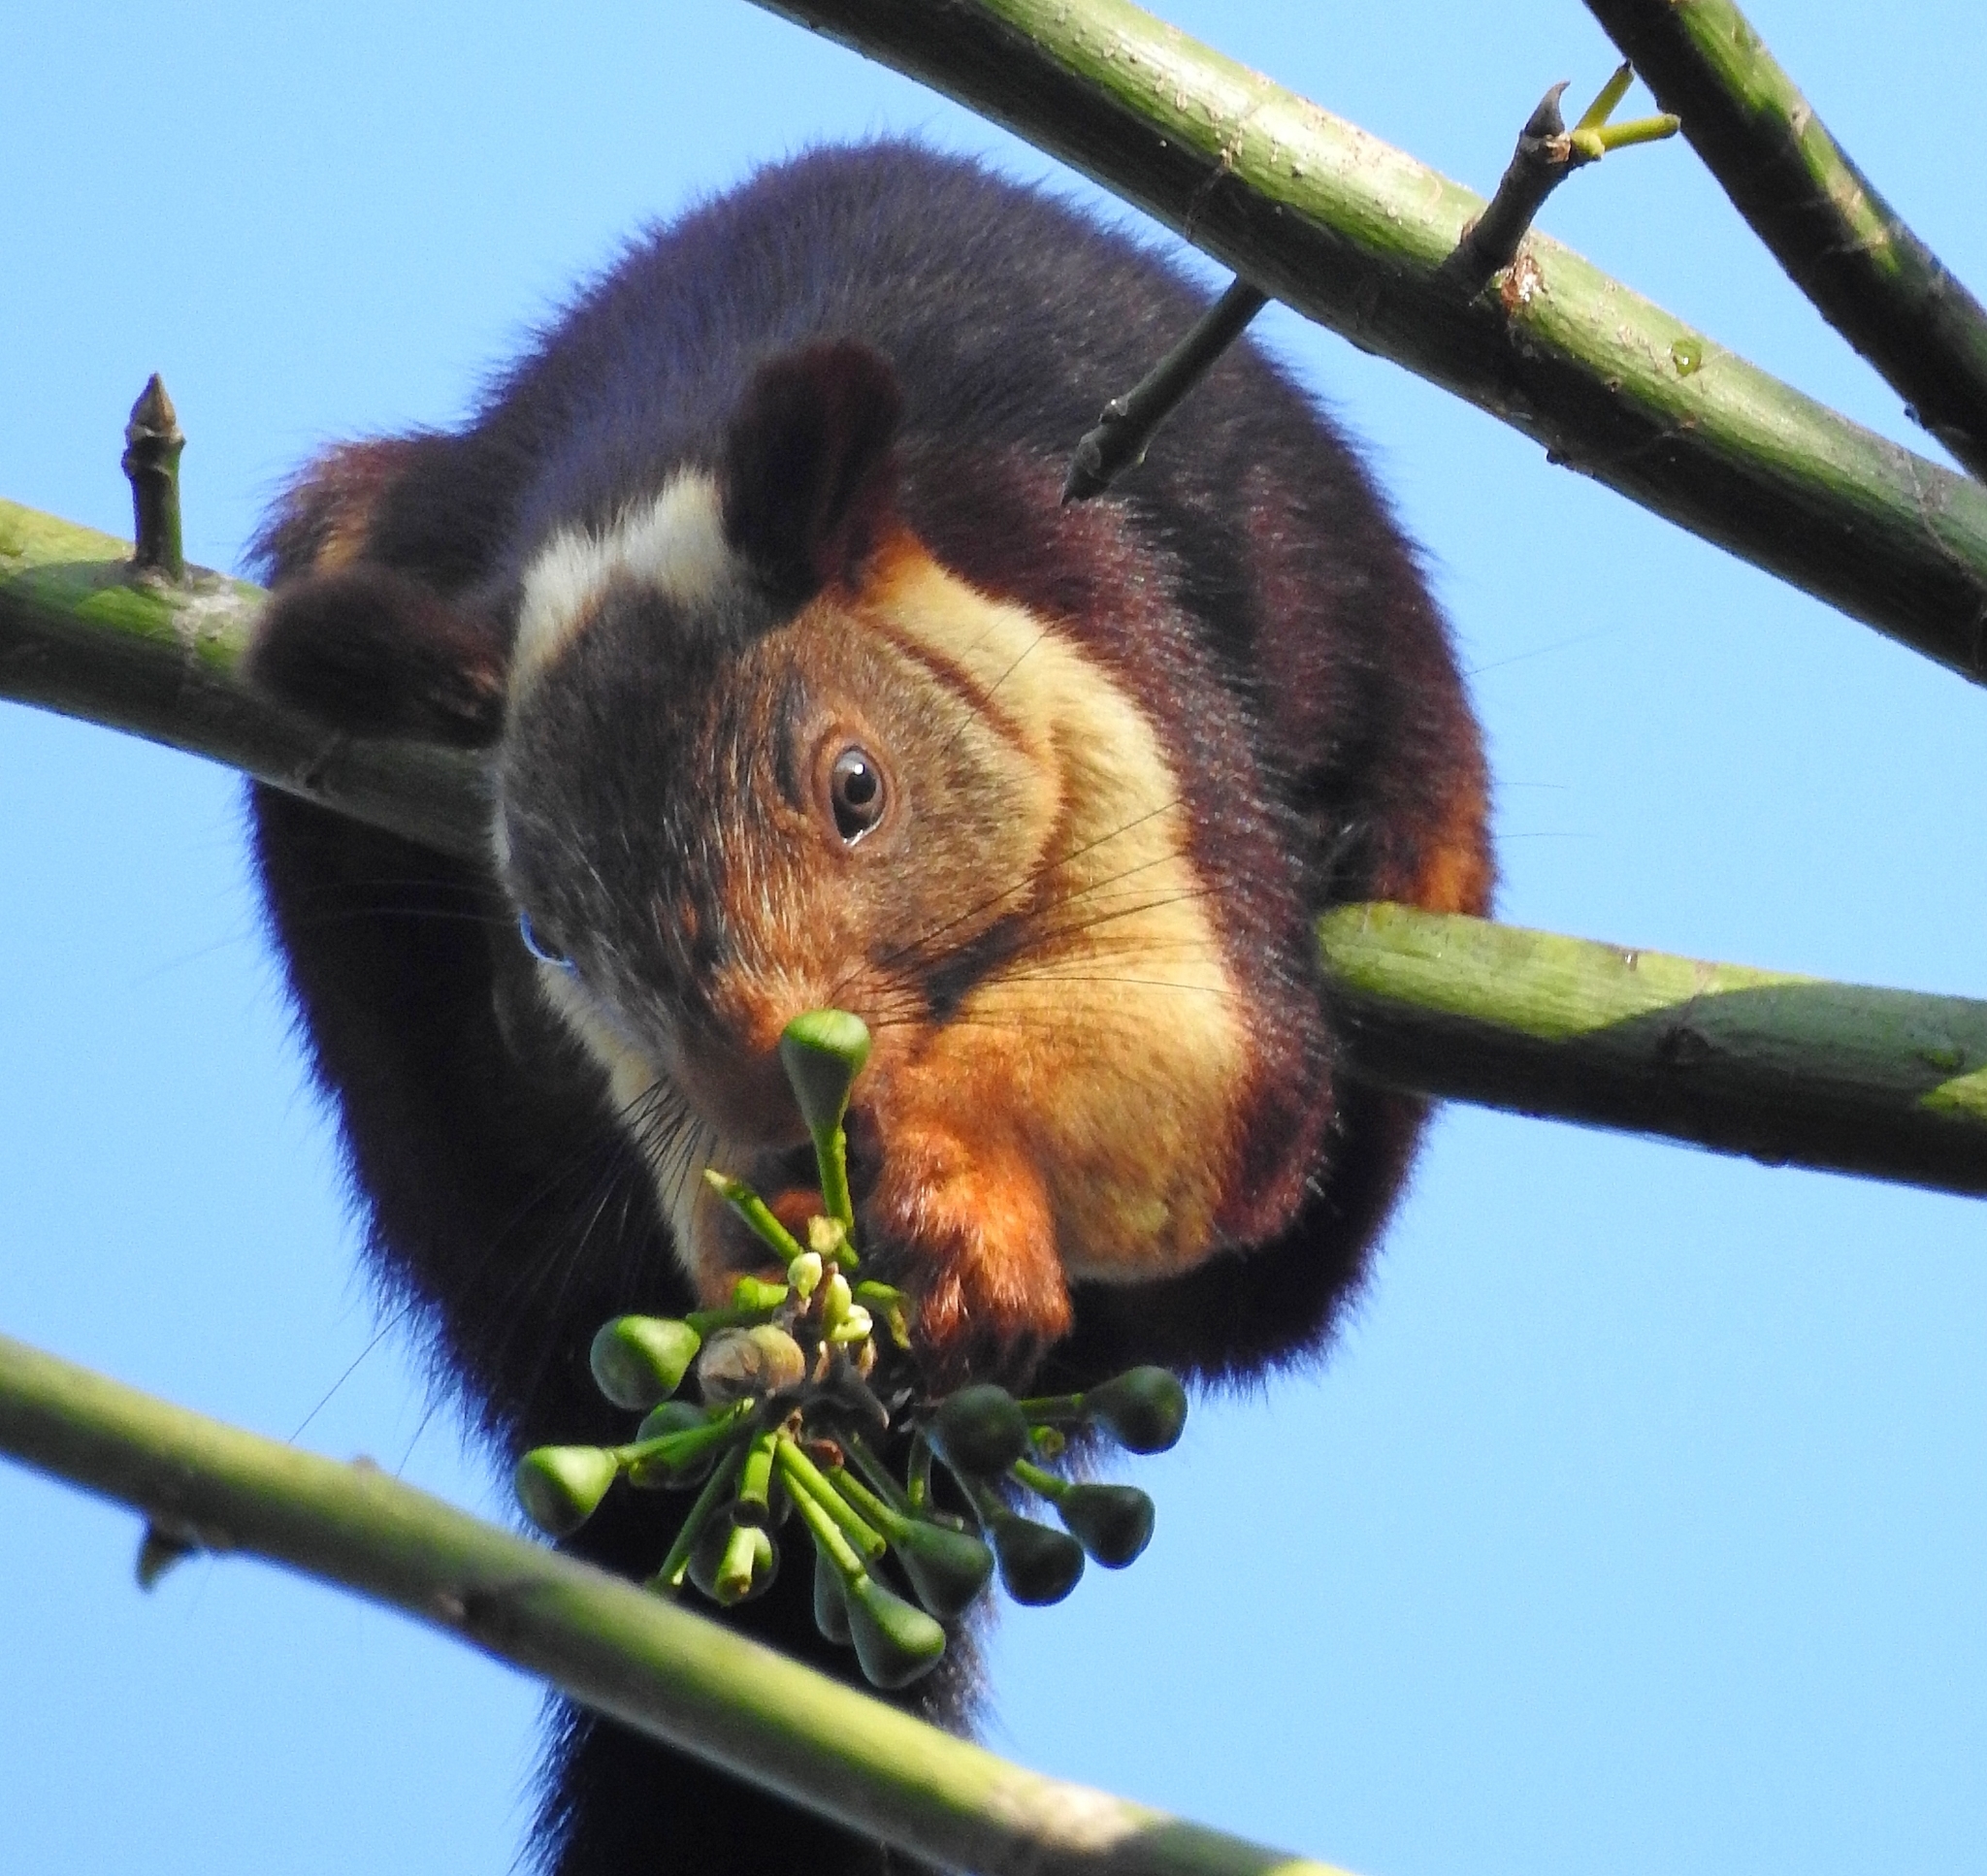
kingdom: Animalia
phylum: Chordata
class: Mammalia
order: Rodentia
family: Sciuridae
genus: Ratufa
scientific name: Ratufa indica
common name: Indian giant squirrel
